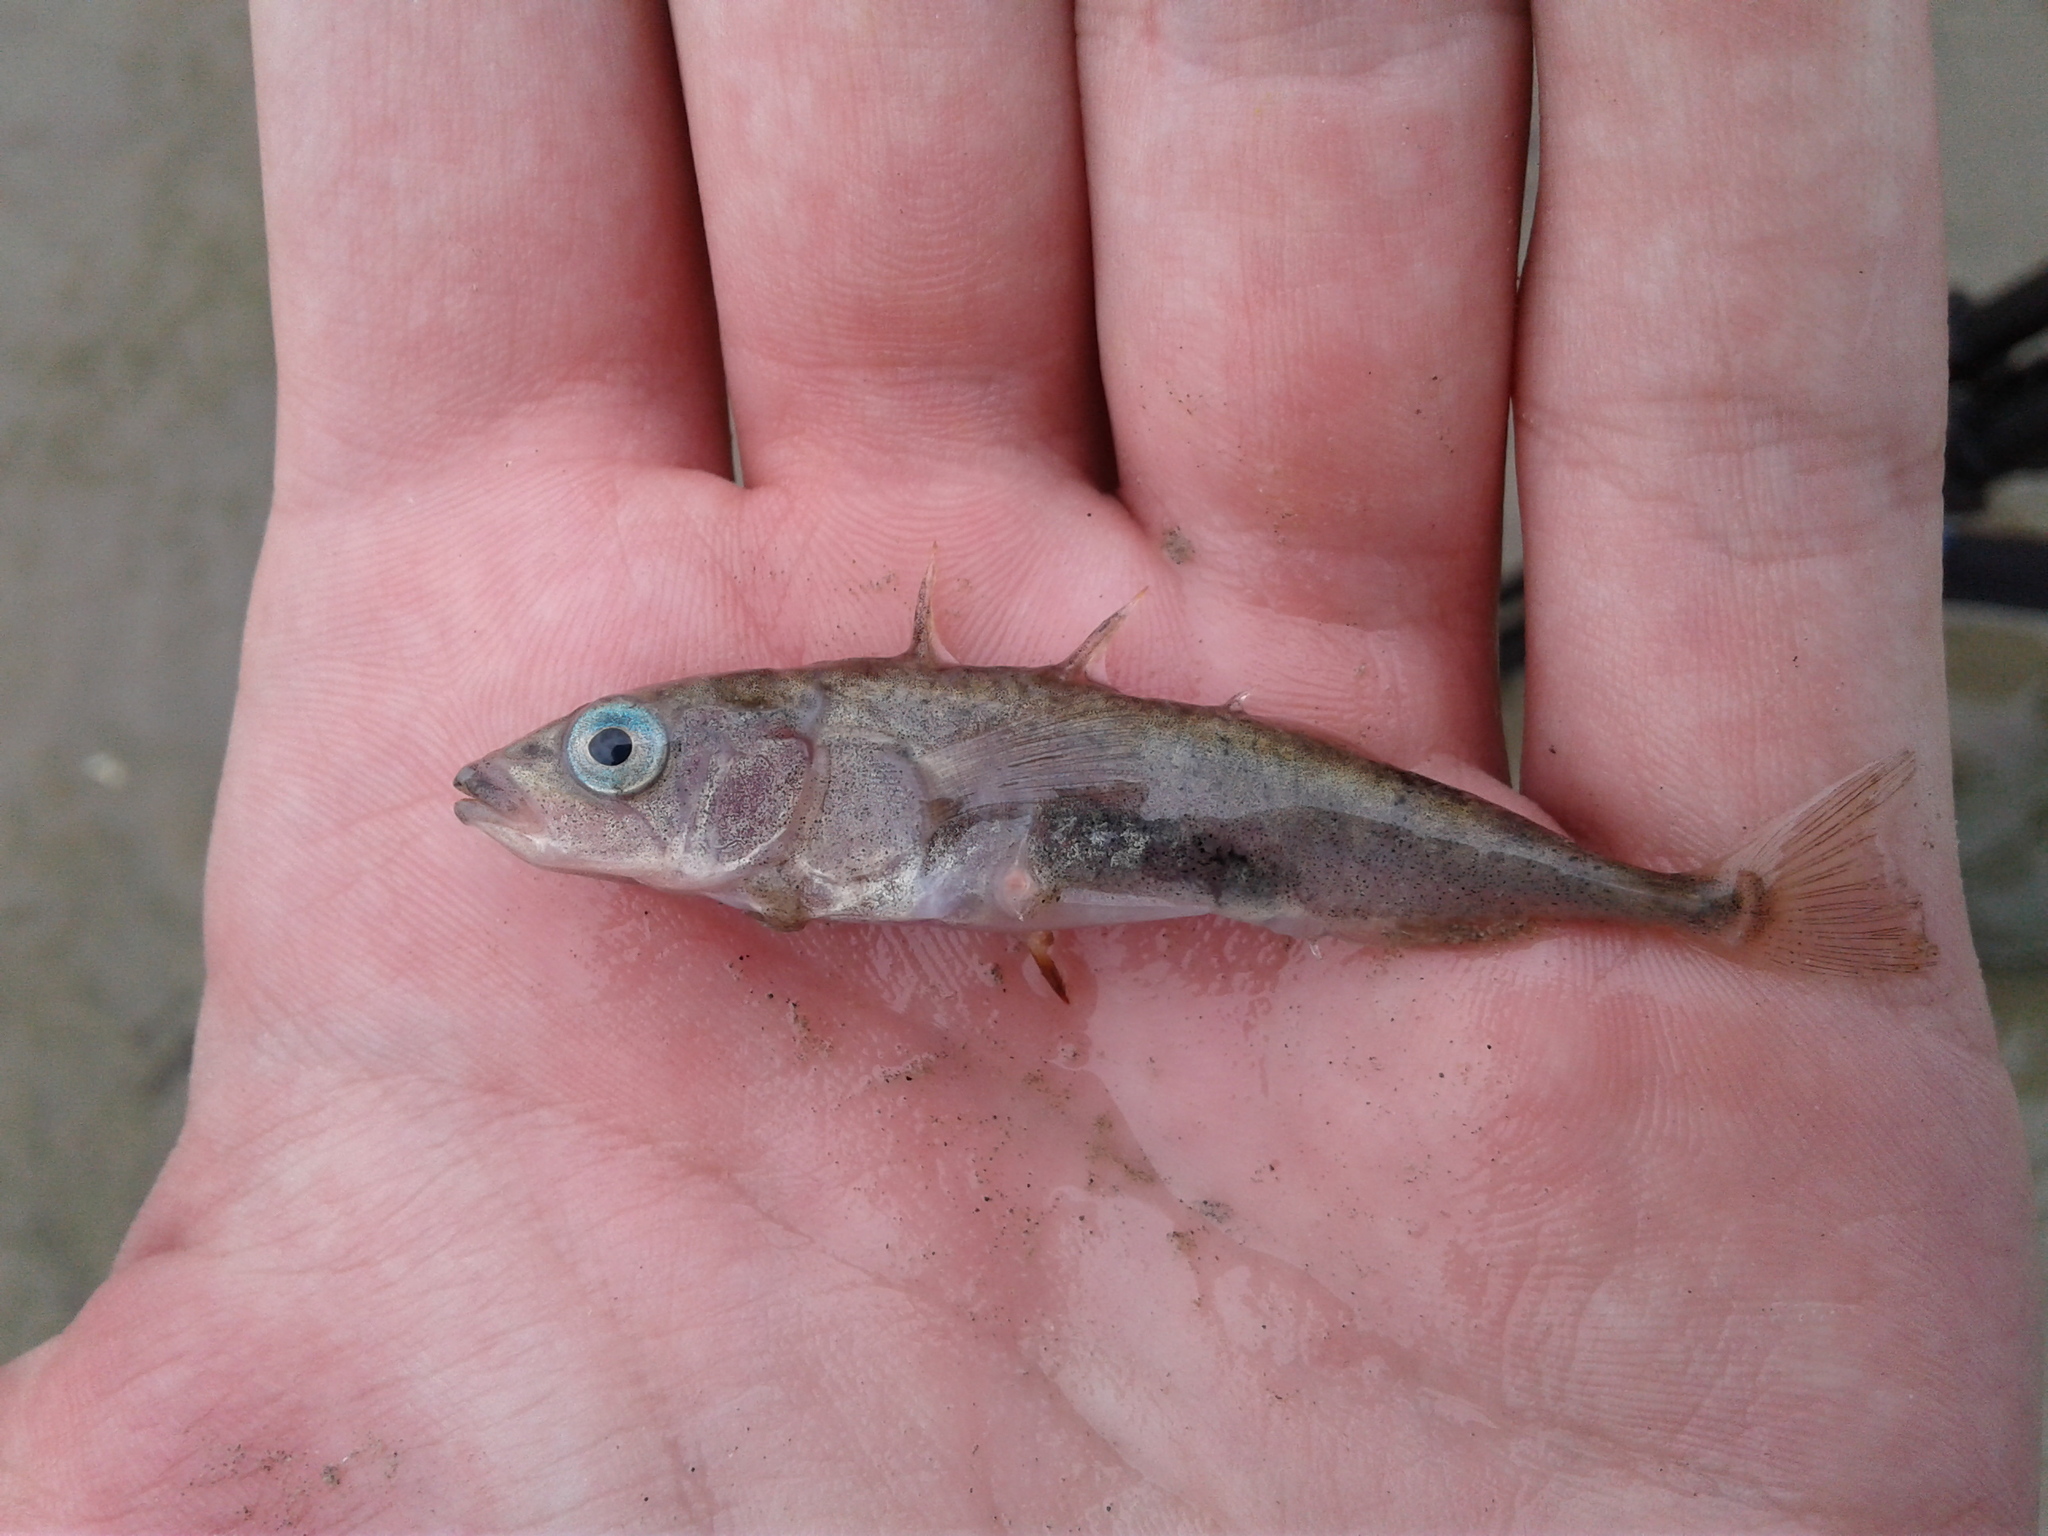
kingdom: Animalia
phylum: Chordata
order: Gasterosteiformes
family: Gasterosteidae
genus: Gasterosteus
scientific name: Gasterosteus aculeatus
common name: Three-spined stickleback
